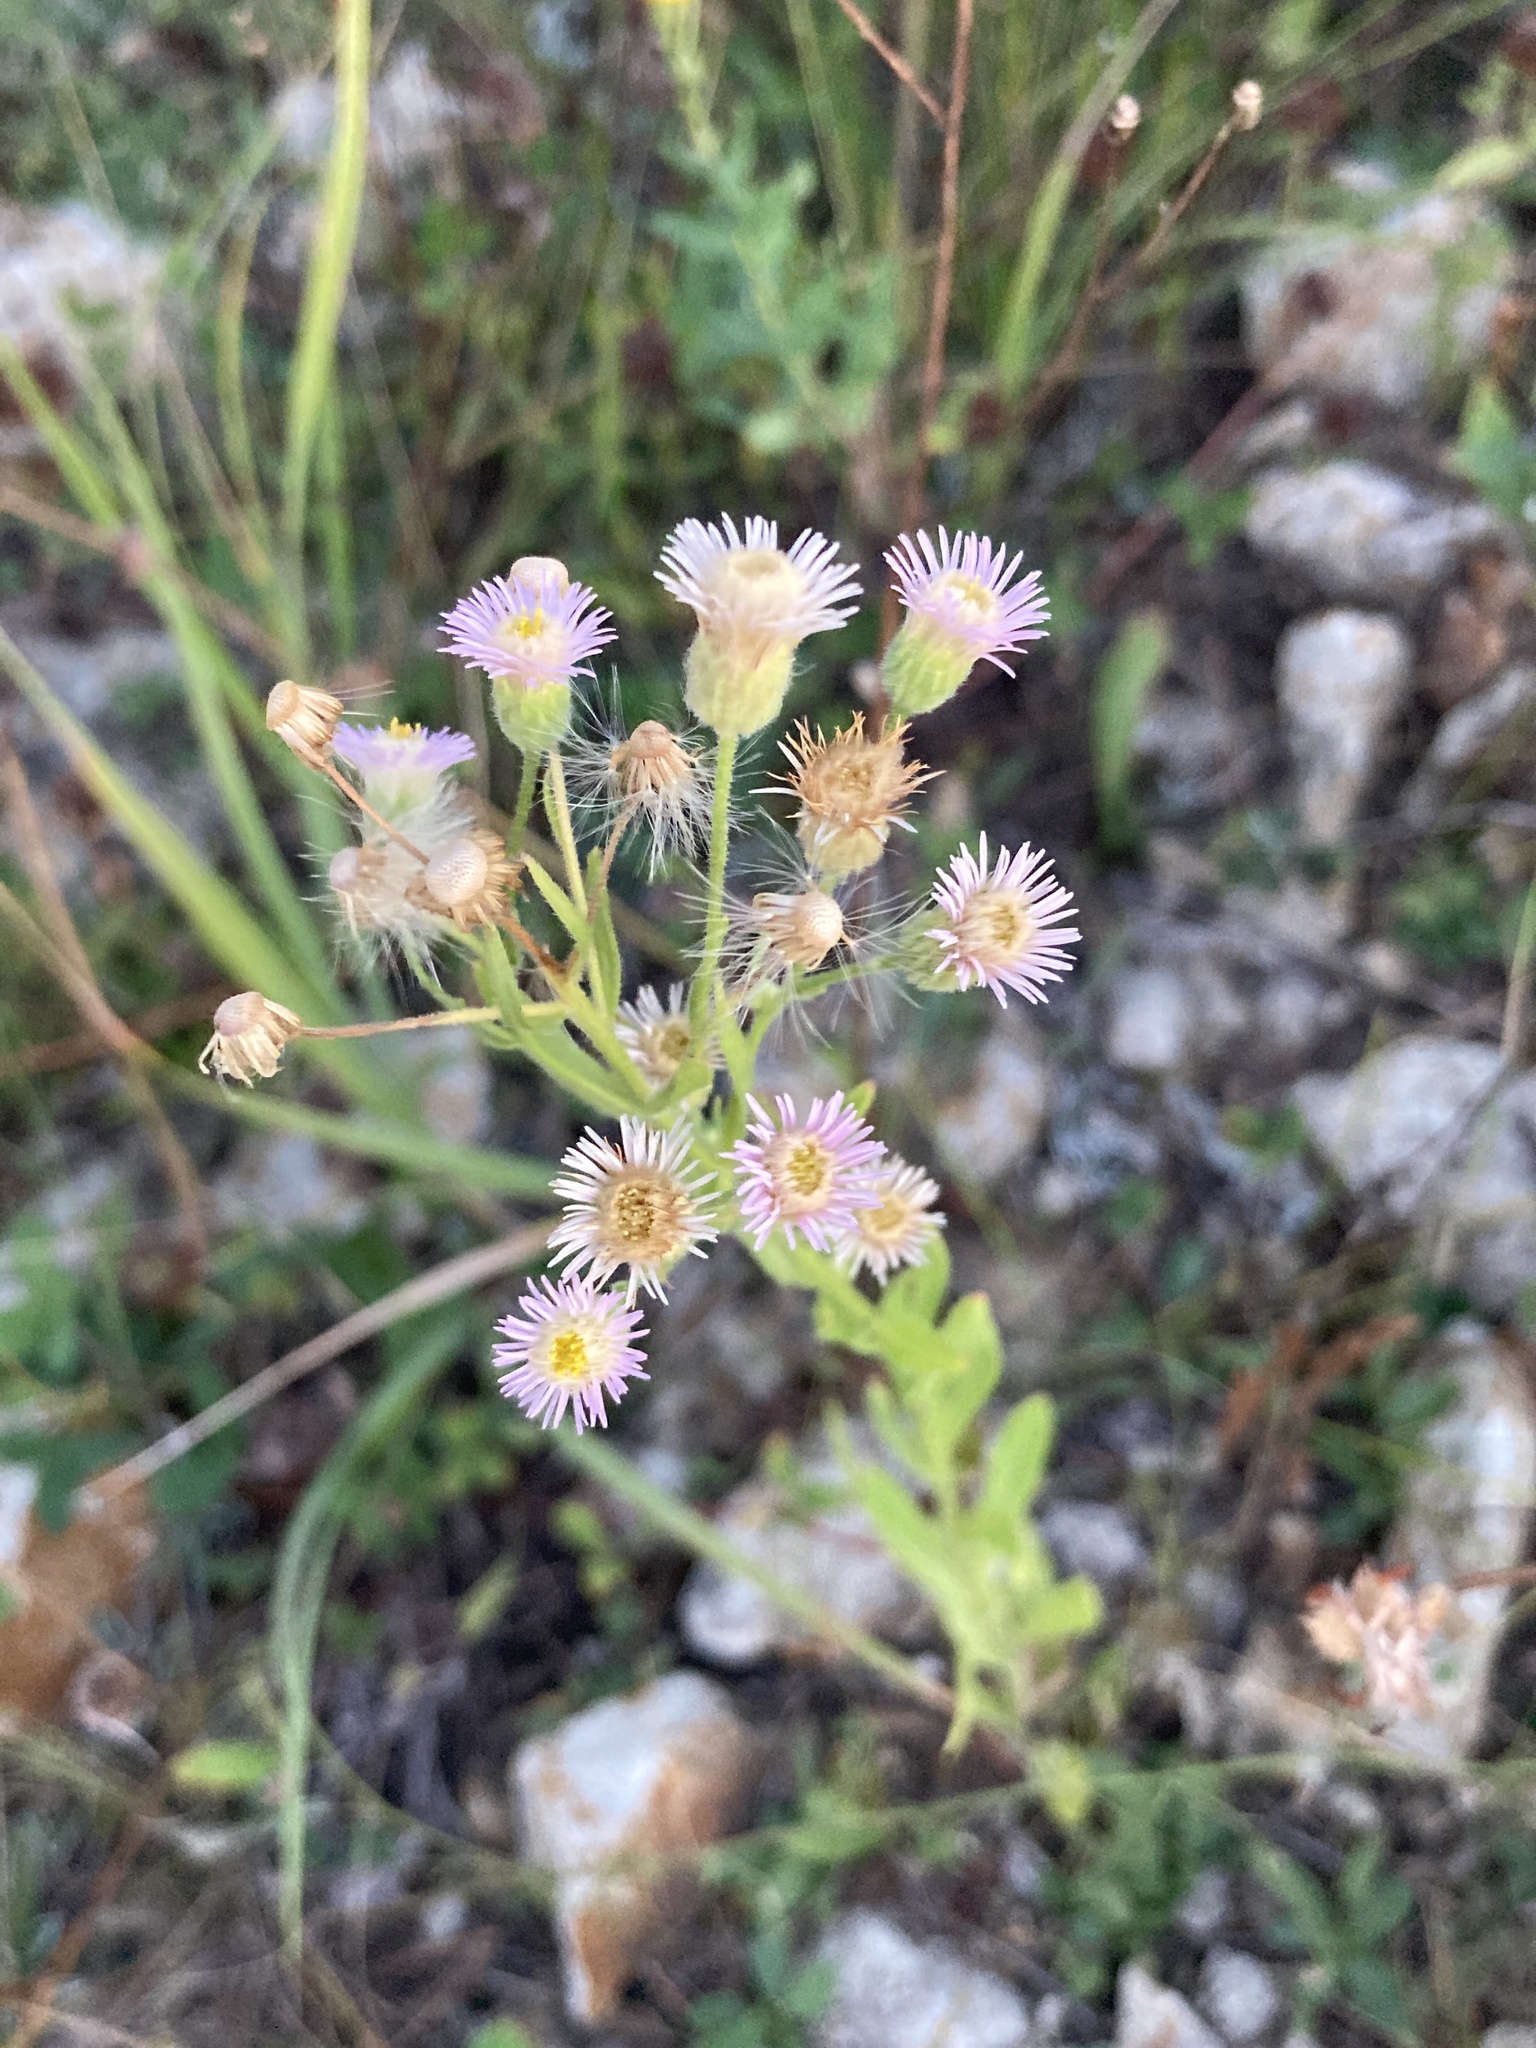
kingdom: Plantae
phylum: Tracheophyta
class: Magnoliopsida
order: Asterales
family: Asteraceae
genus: Erigeron
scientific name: Erigeron acris
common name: Blue fleabane
